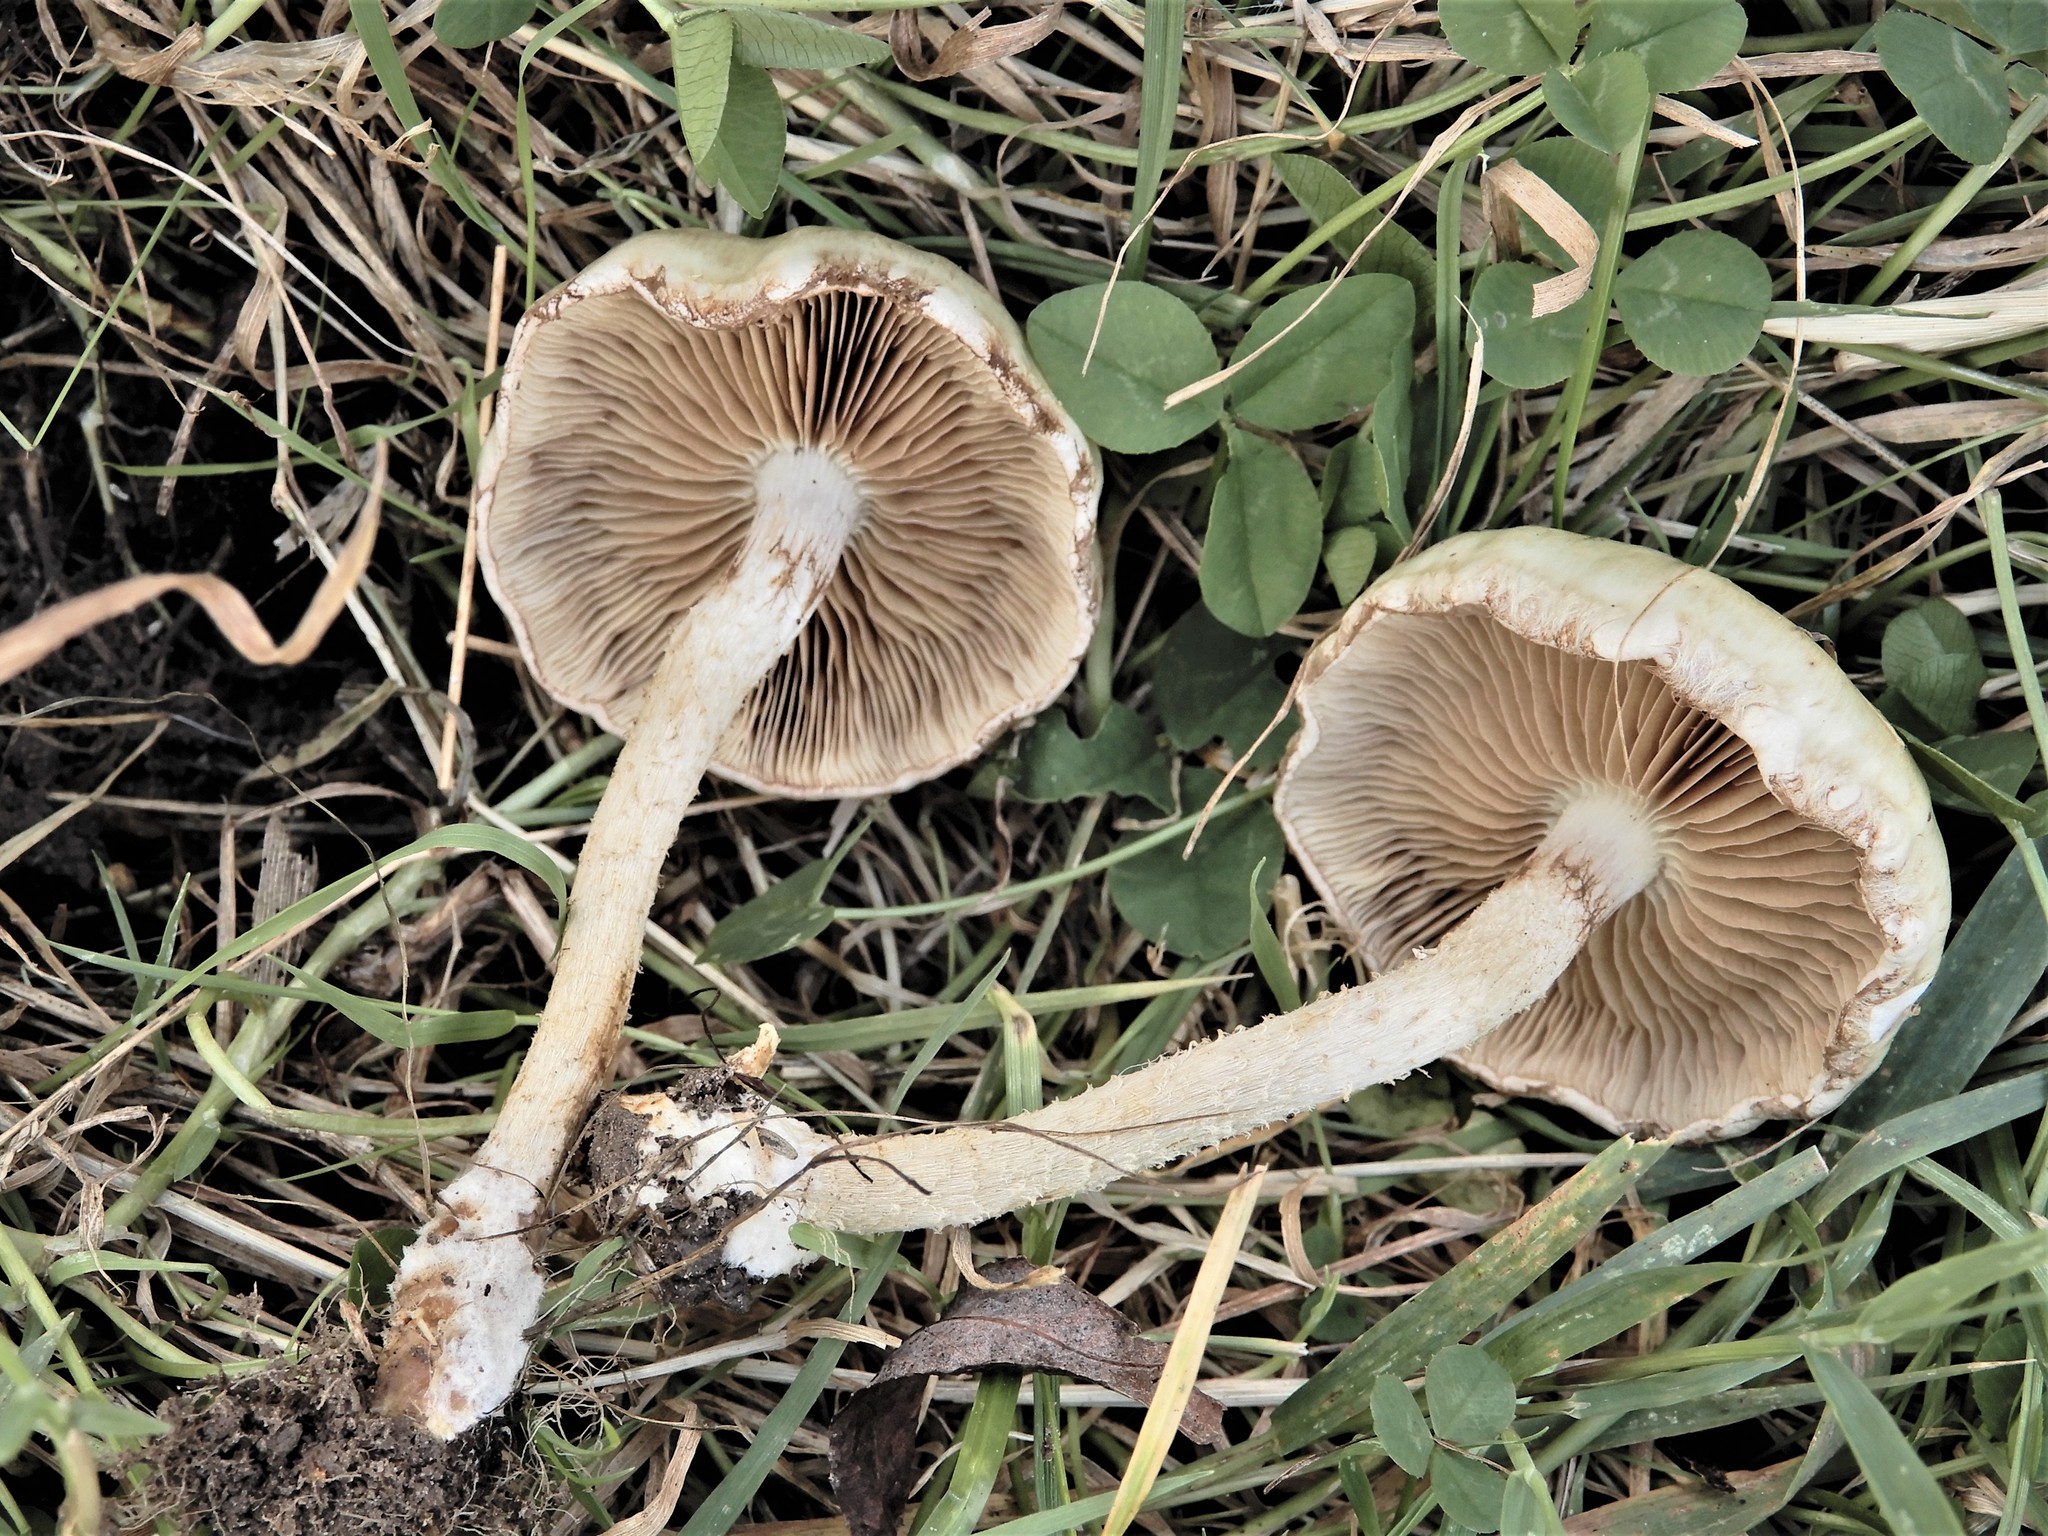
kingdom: Fungi
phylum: Basidiomycota
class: Agaricomycetes
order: Agaricales
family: Strophariaceae
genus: Pholiota
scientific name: Pholiota gummosa
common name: Sticky scalycap
